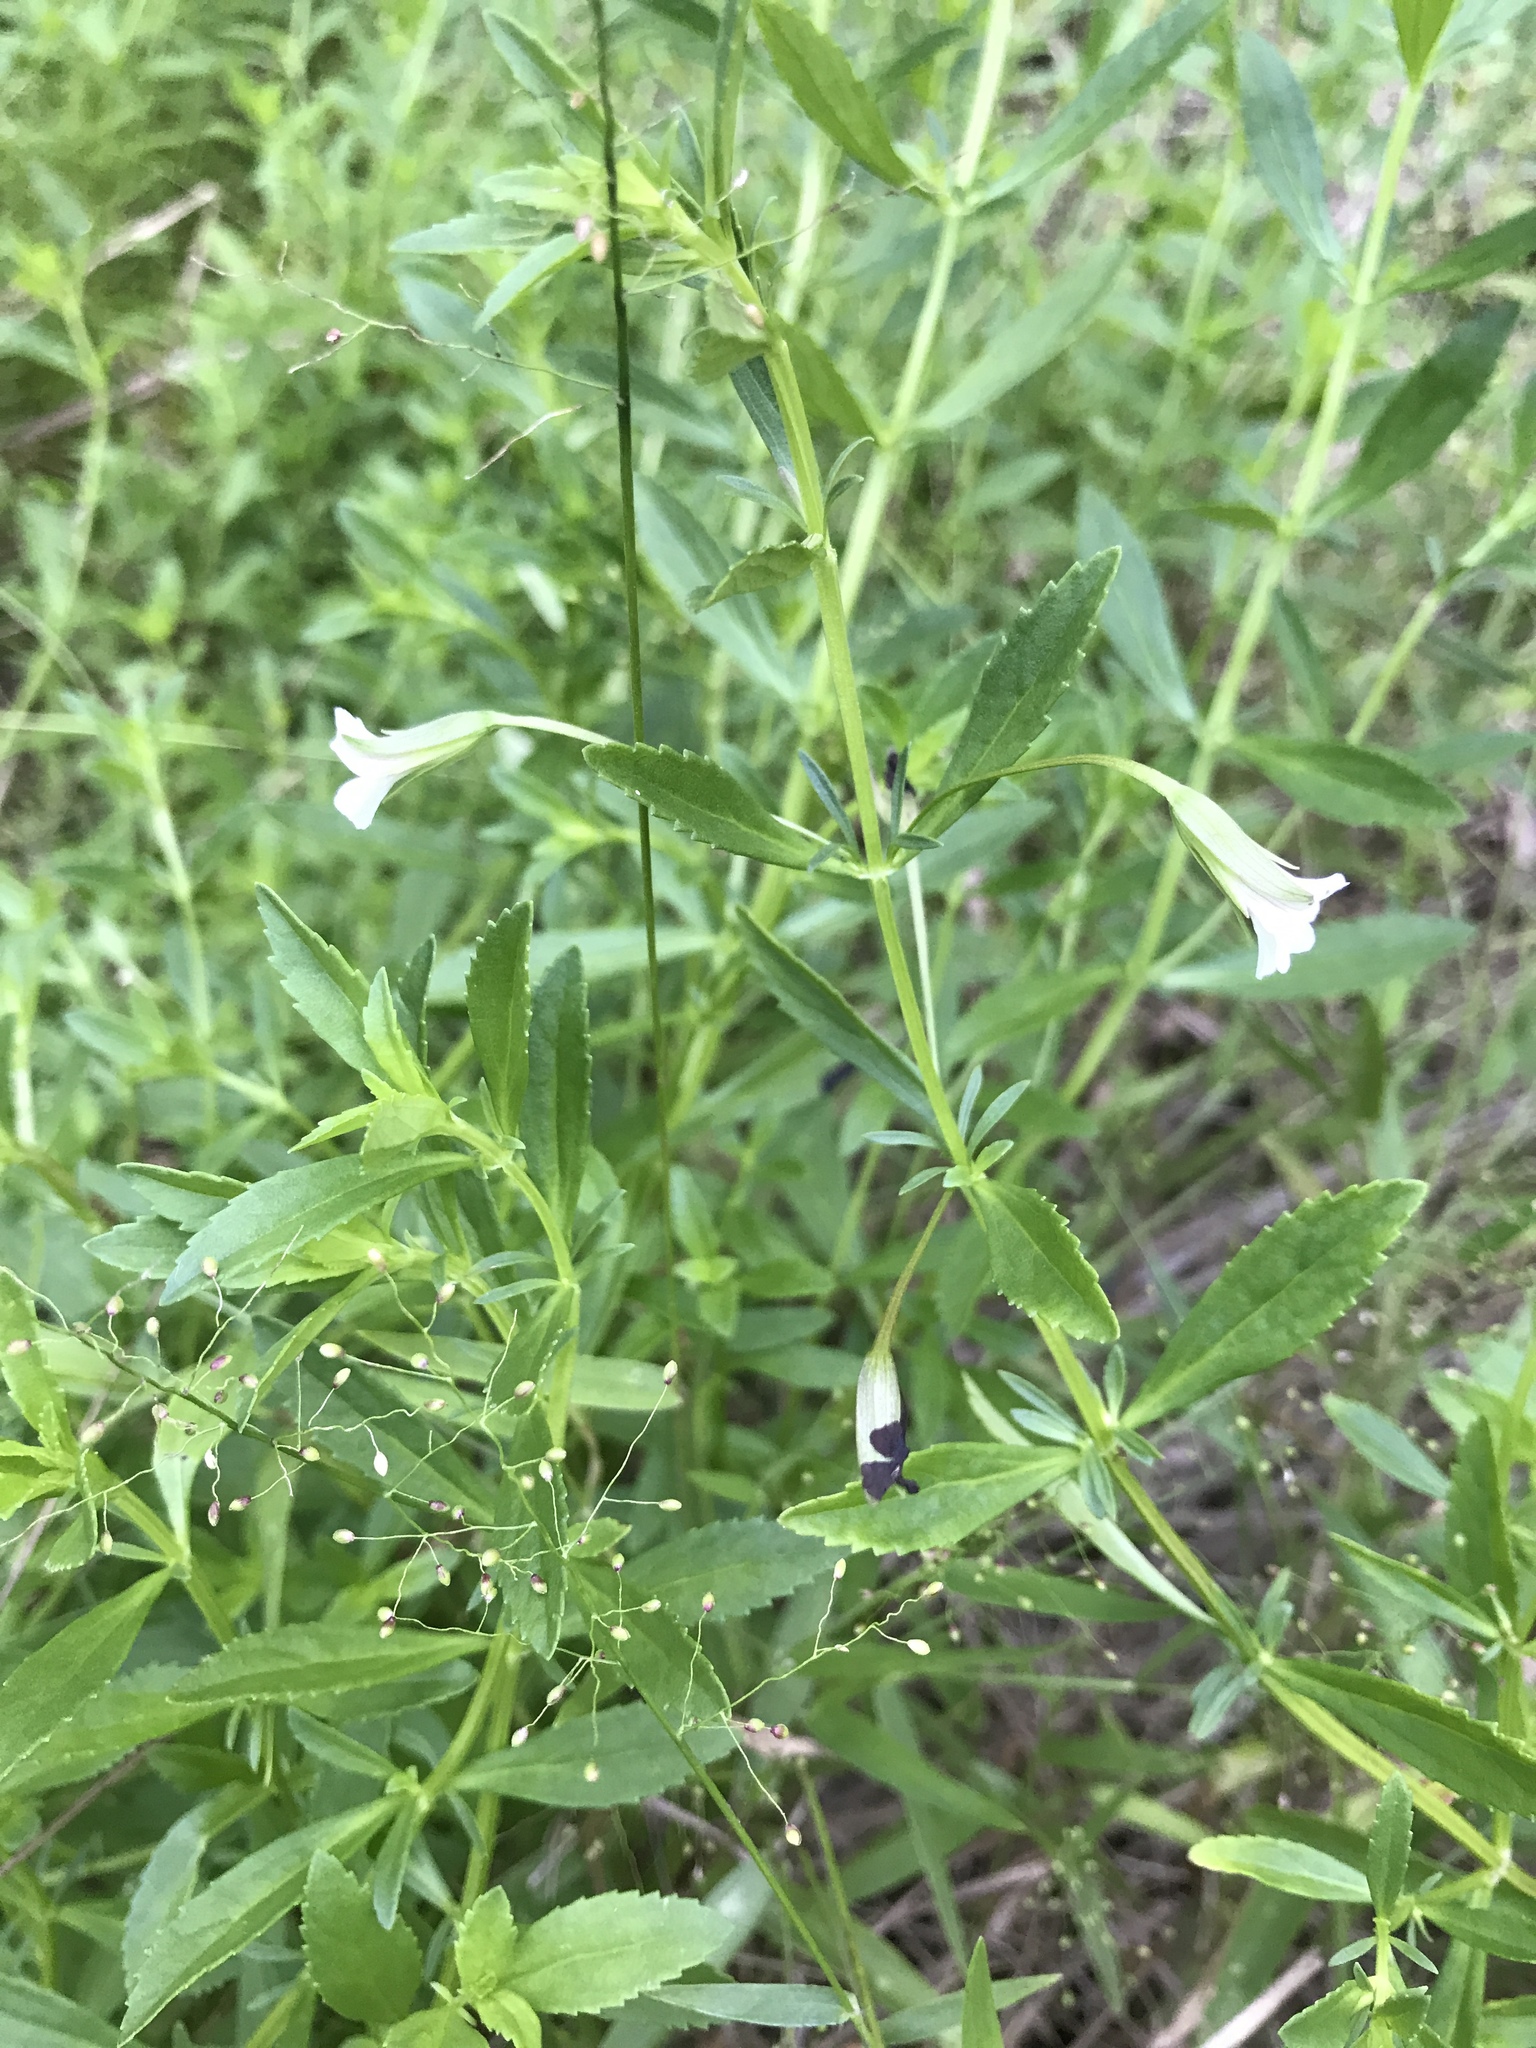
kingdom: Plantae
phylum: Tracheophyta
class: Magnoliopsida
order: Lamiales
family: Plantaginaceae
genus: Mecardonia
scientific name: Mecardonia acuminata
